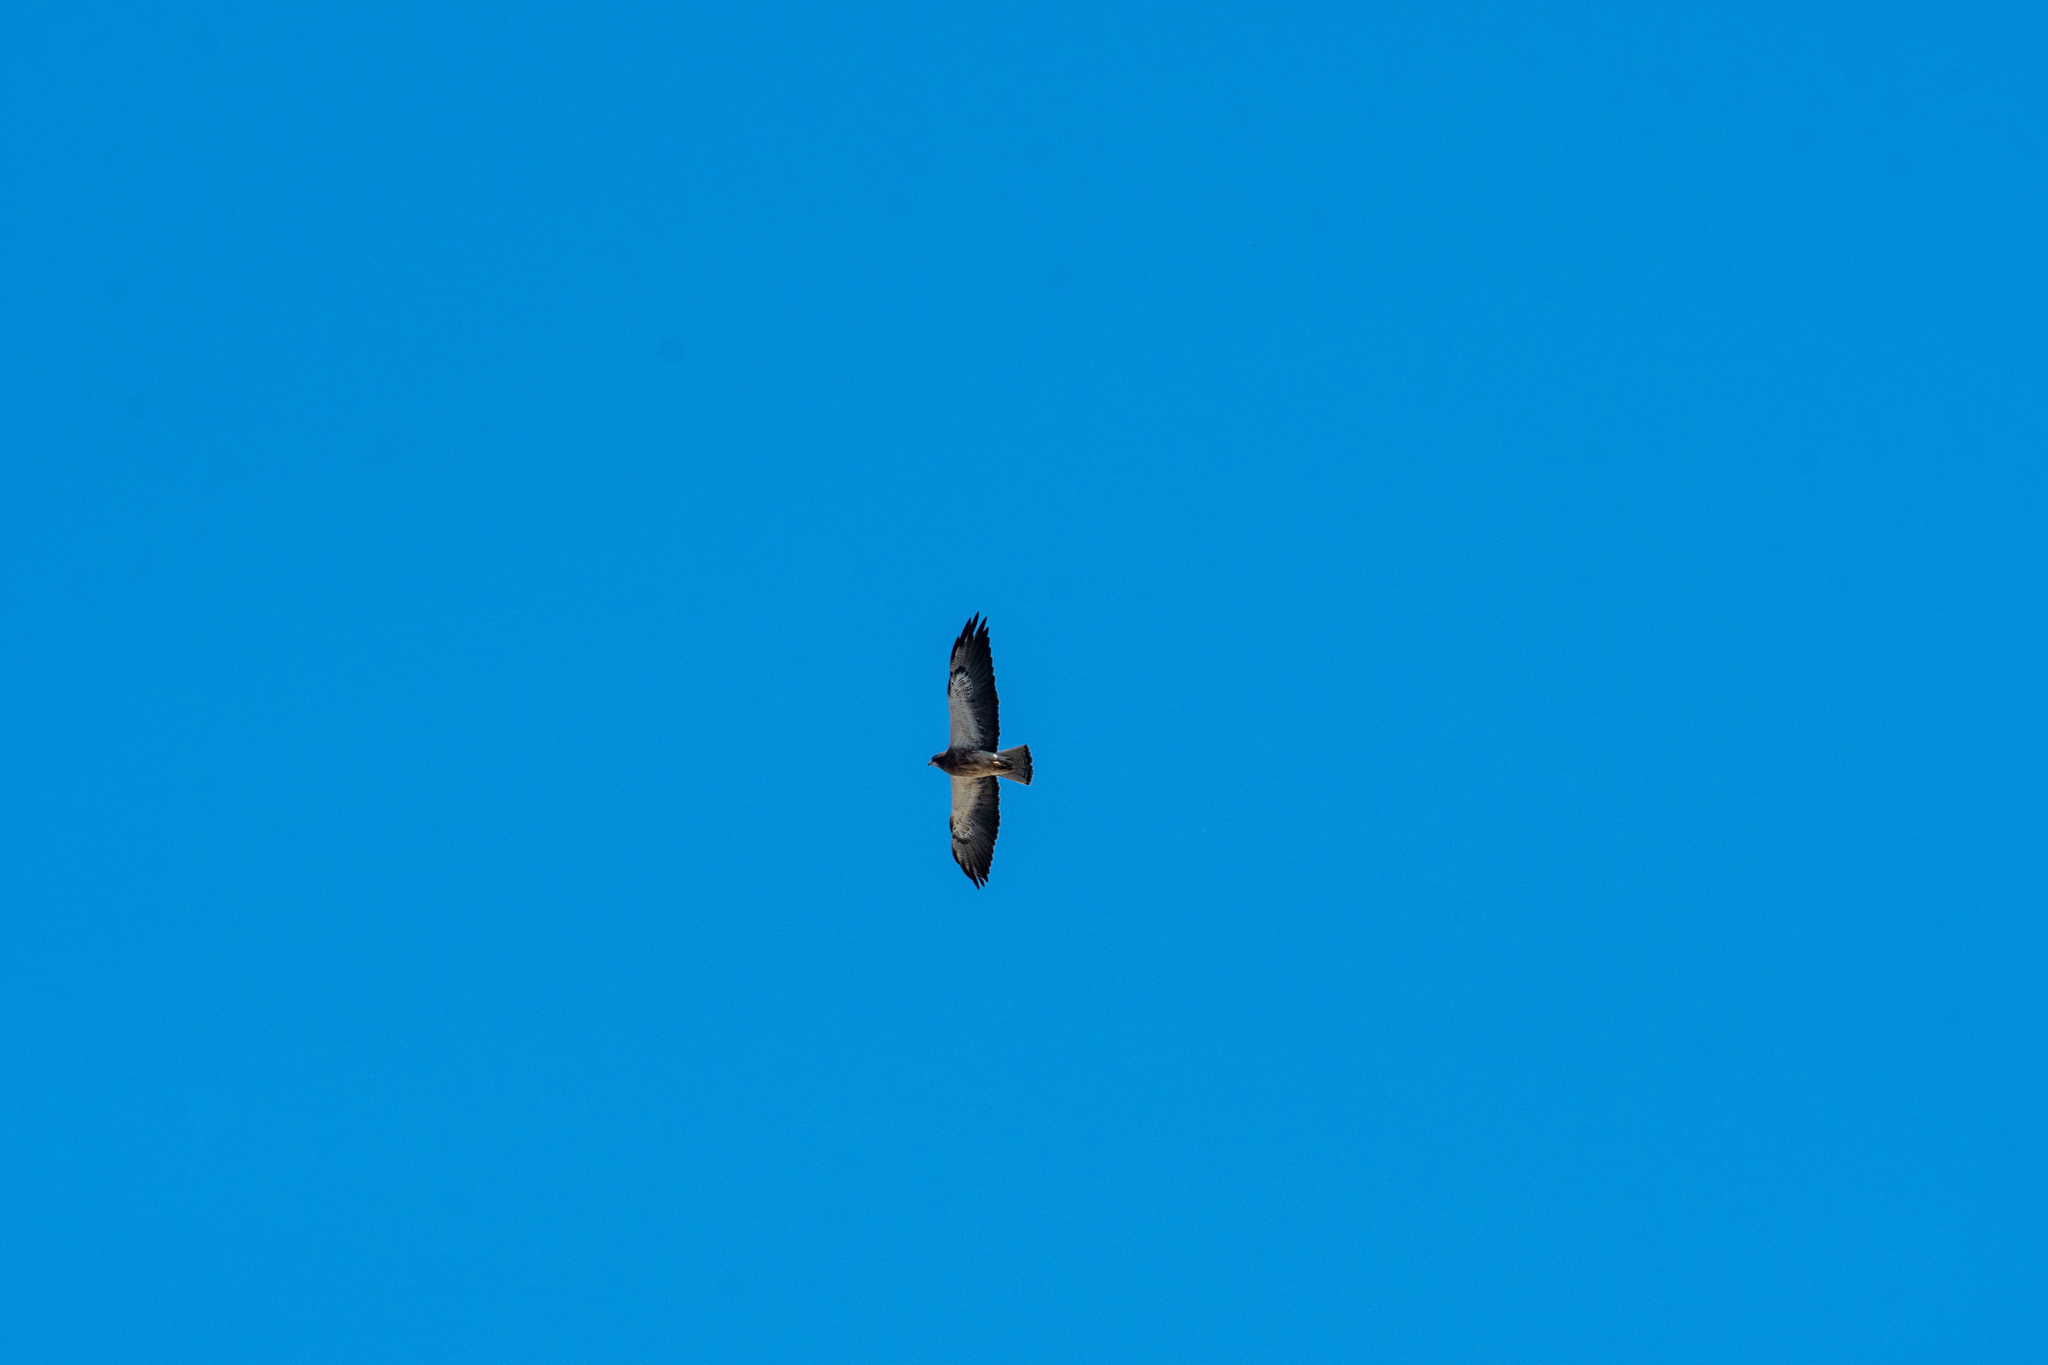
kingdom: Animalia
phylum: Chordata
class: Aves
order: Accipitriformes
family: Accipitridae
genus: Buteo
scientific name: Buteo swainsoni
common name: Swainson's hawk
